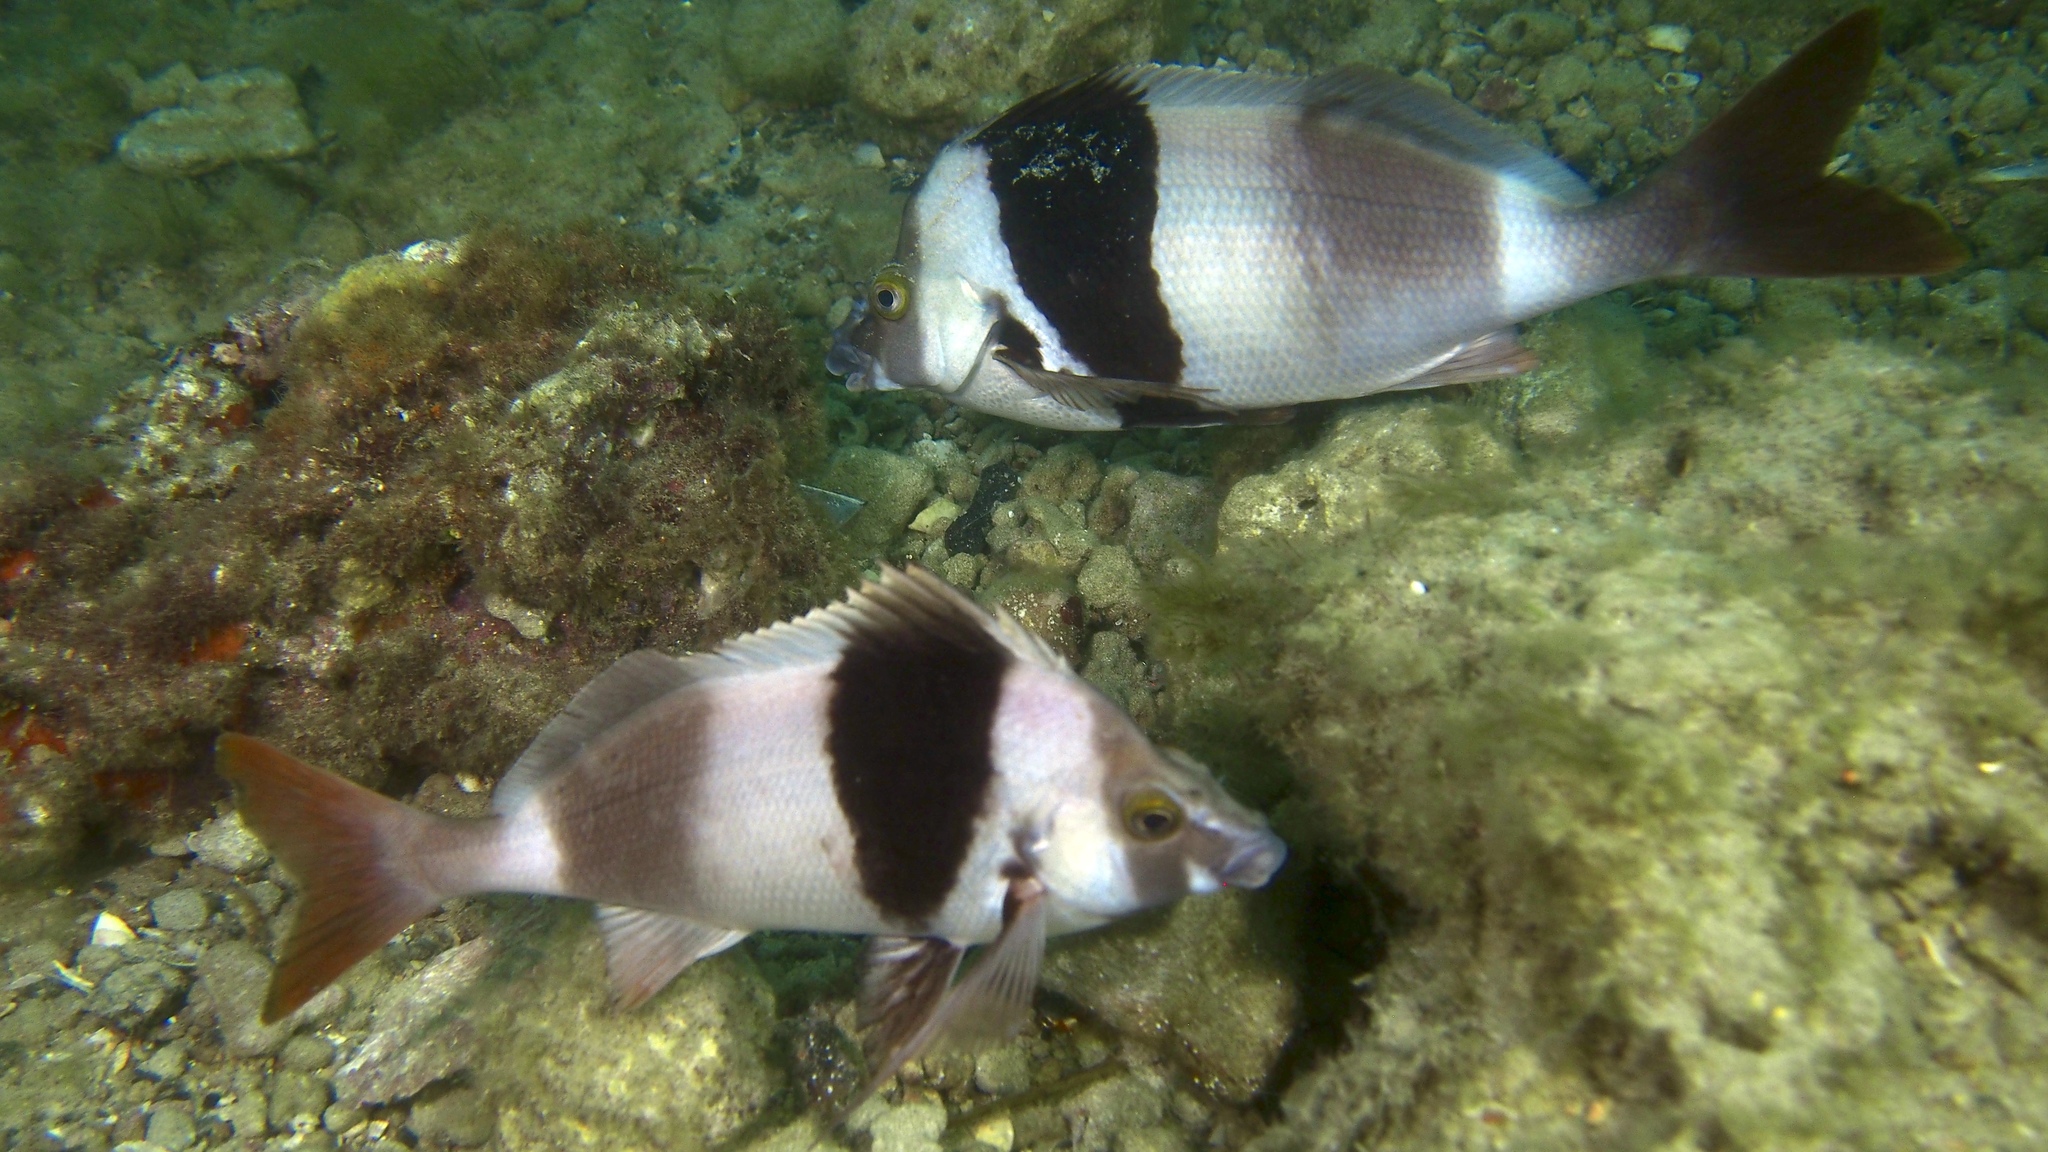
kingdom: Animalia
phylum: Chordata
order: Perciformes
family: Latridae
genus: Pseudogoniistius
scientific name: Pseudogoniistius nigripes
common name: Black-striped morwong
